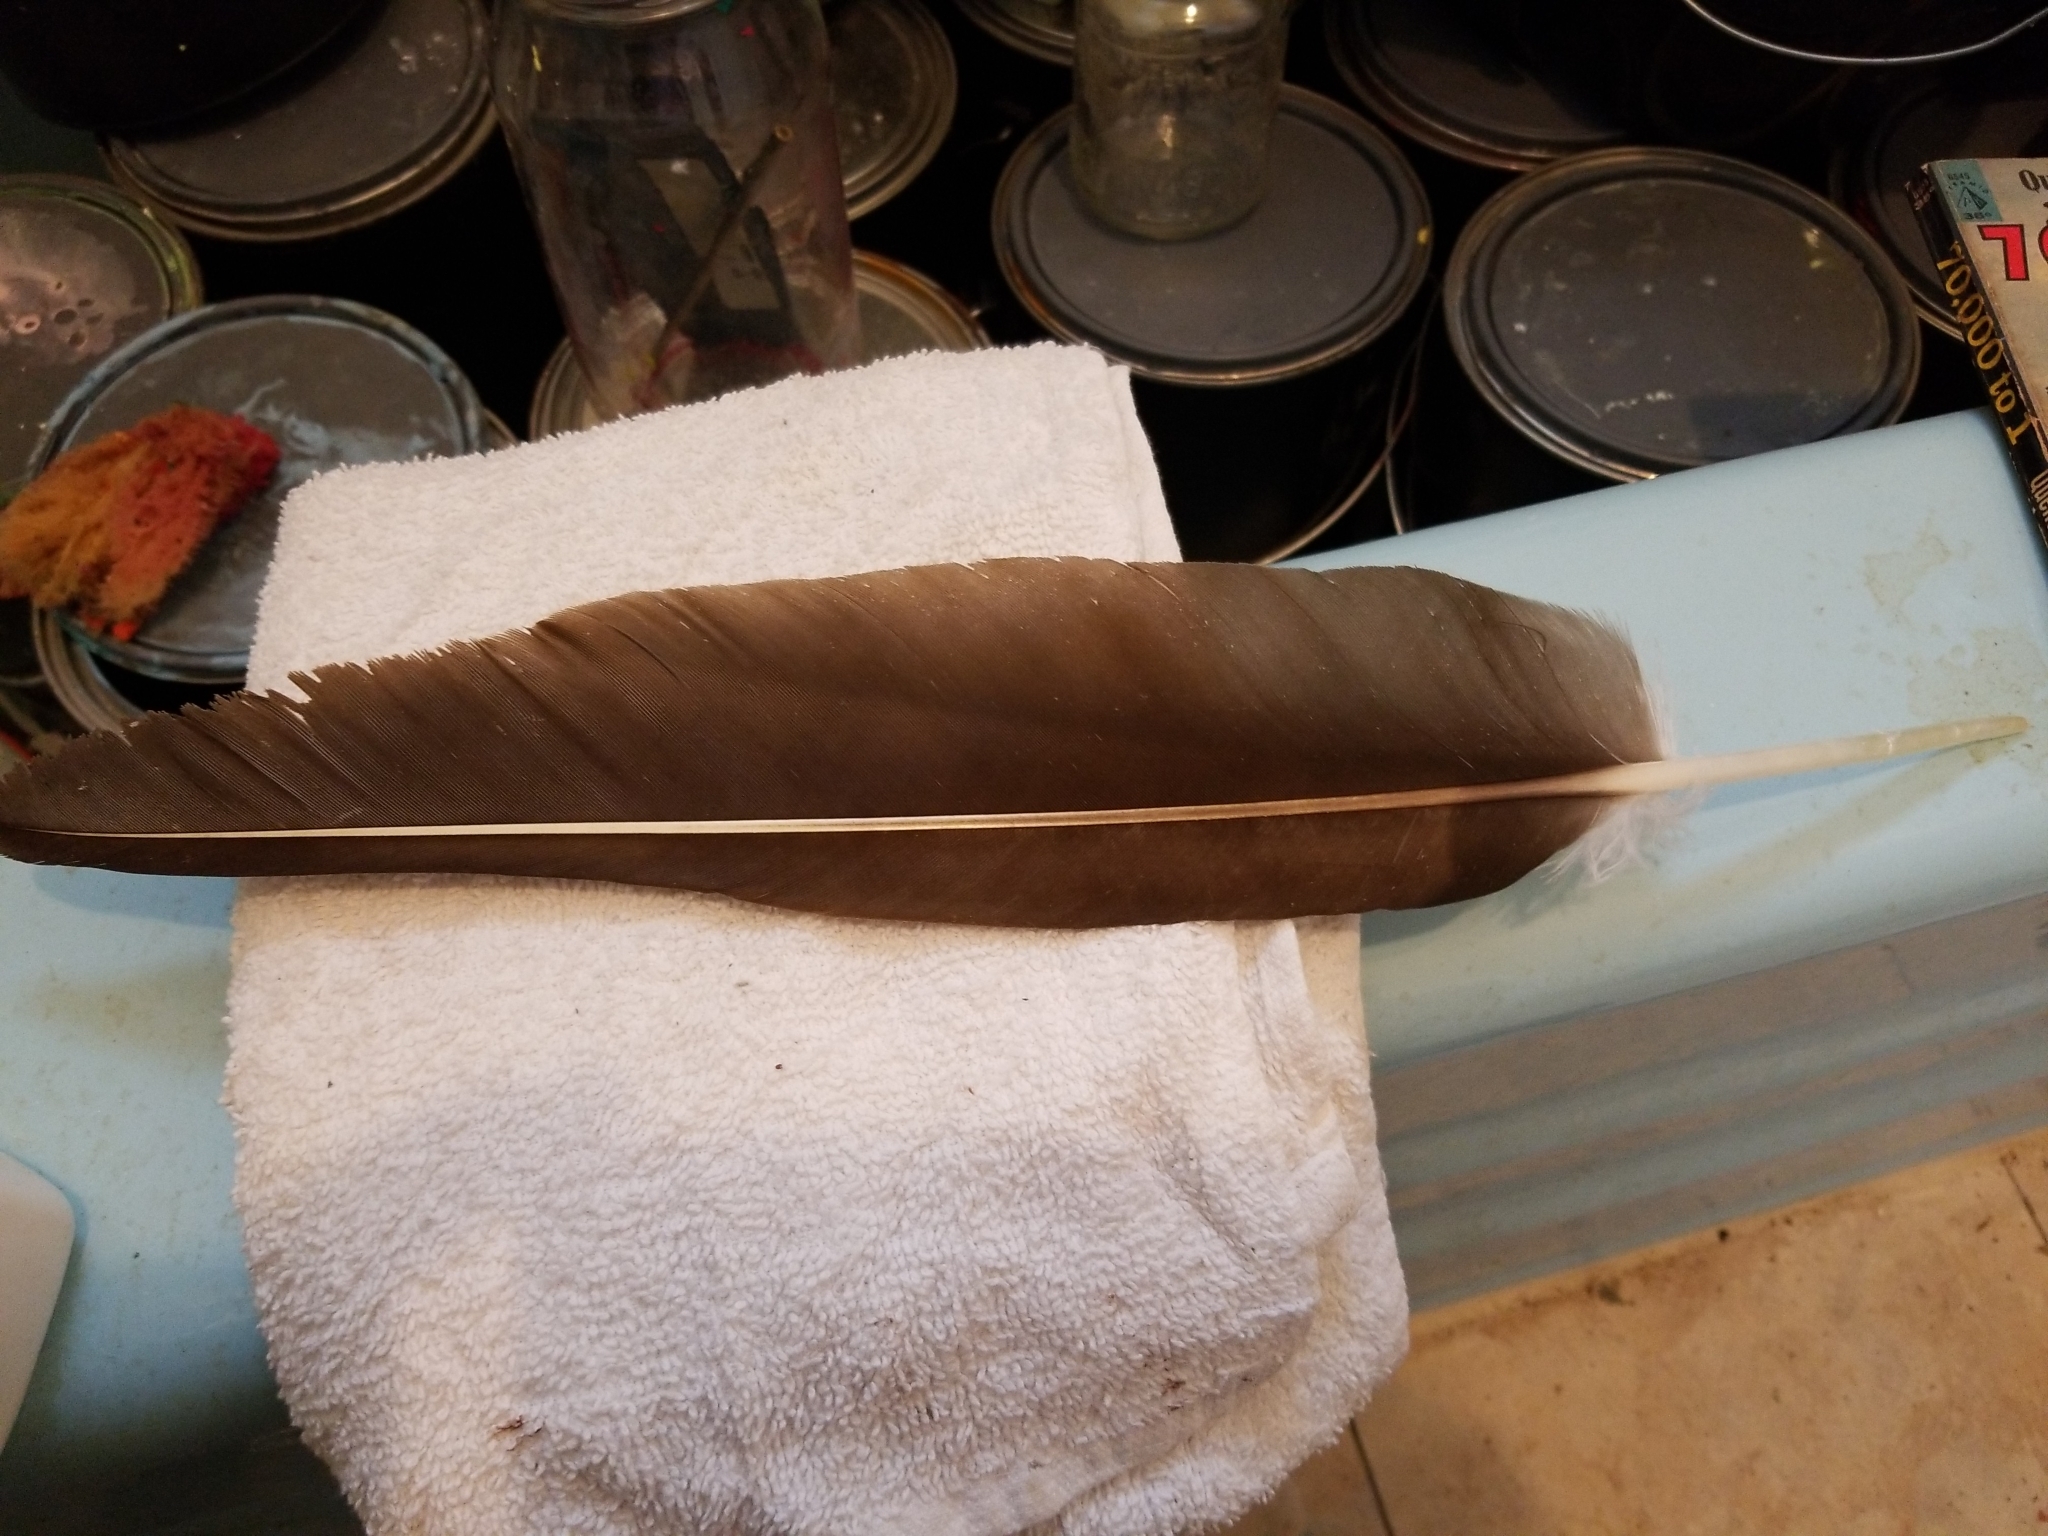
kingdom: Animalia
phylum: Chordata
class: Aves
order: Accipitriformes
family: Cathartidae
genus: Cathartes
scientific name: Cathartes aura
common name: Turkey vulture
